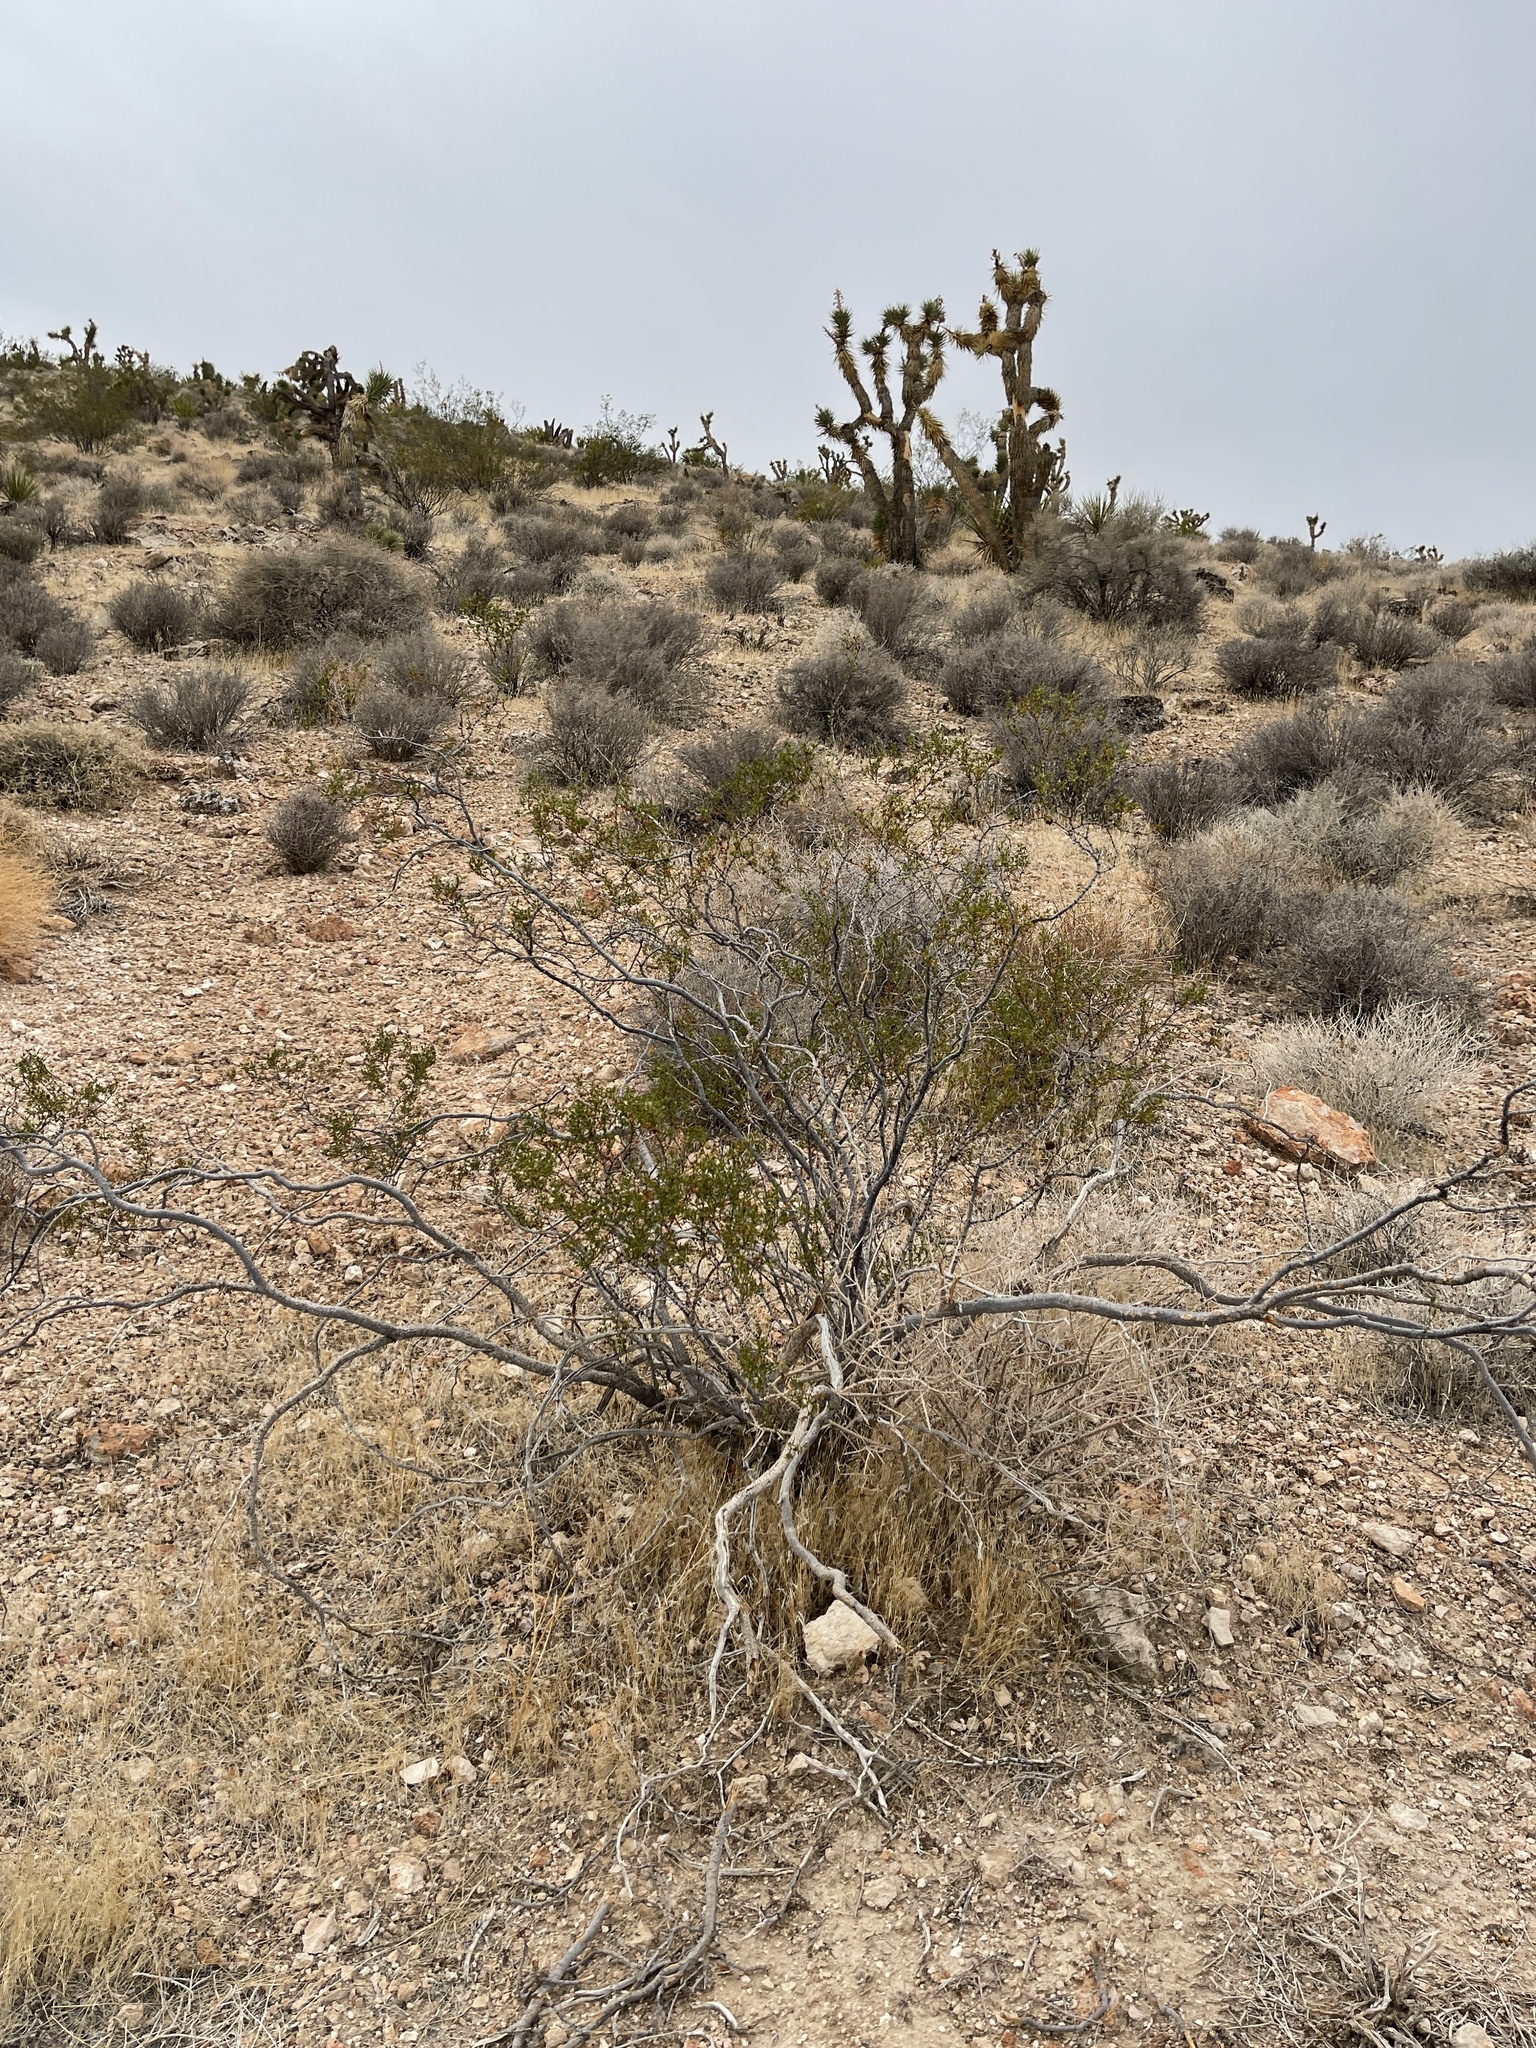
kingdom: Plantae
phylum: Tracheophyta
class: Magnoliopsida
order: Zygophyllales
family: Zygophyllaceae
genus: Larrea
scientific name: Larrea tridentata
